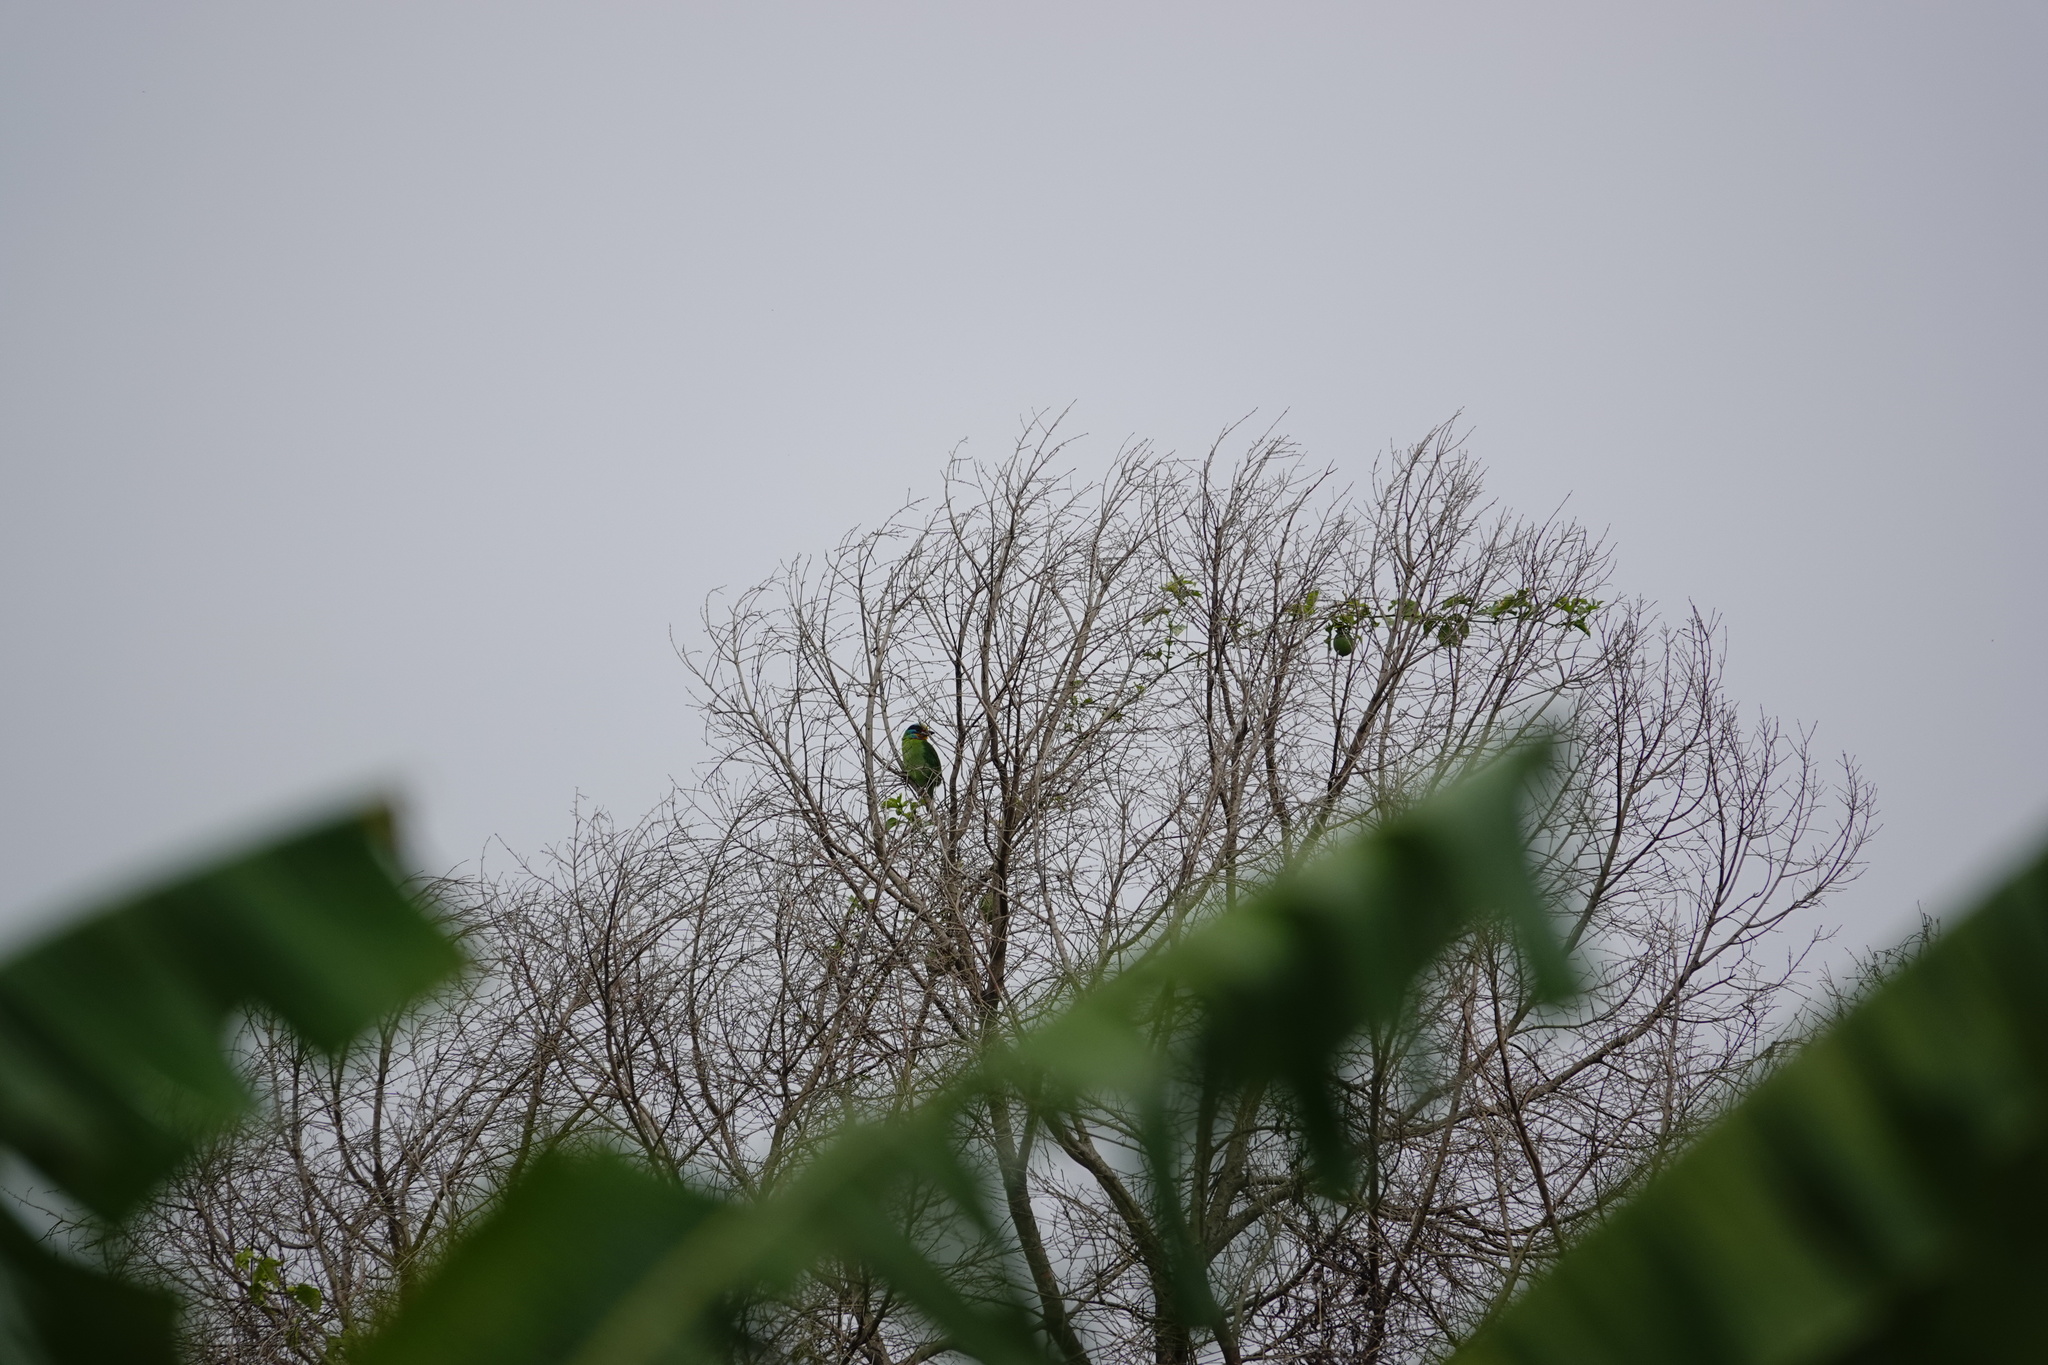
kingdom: Animalia
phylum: Chordata
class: Aves
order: Piciformes
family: Megalaimidae
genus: Psilopogon
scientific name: Psilopogon nuchalis
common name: Taiwan barbet
